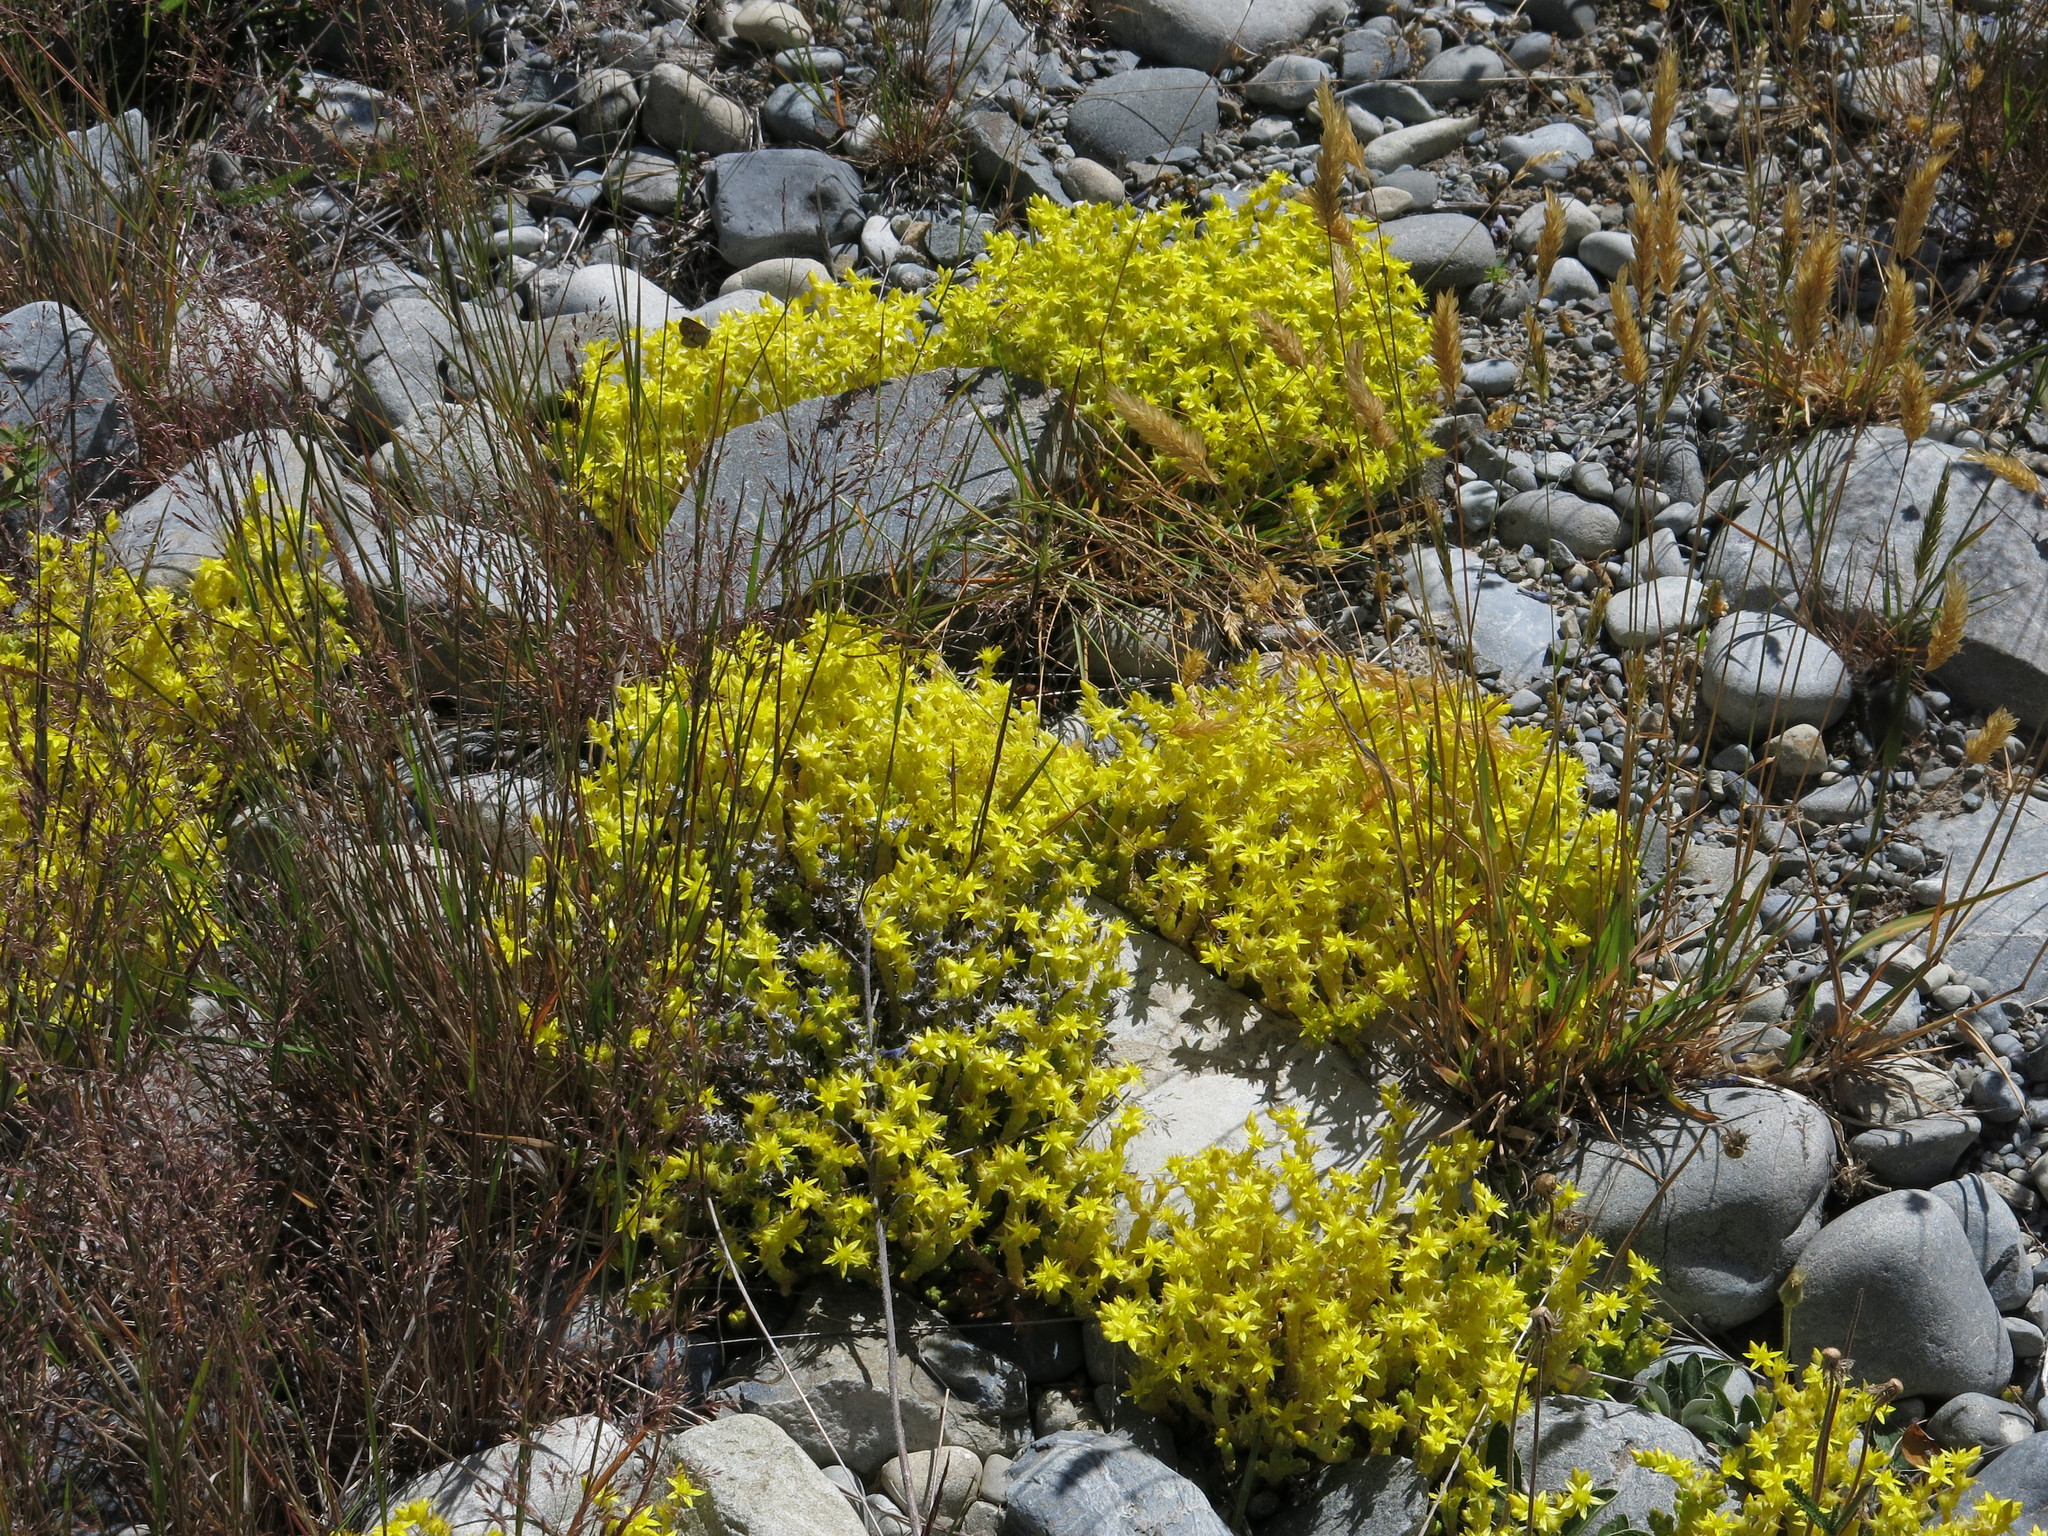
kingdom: Plantae
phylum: Tracheophyta
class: Magnoliopsida
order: Saxifragales
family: Crassulaceae
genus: Sedum
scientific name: Sedum acre
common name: Biting stonecrop
